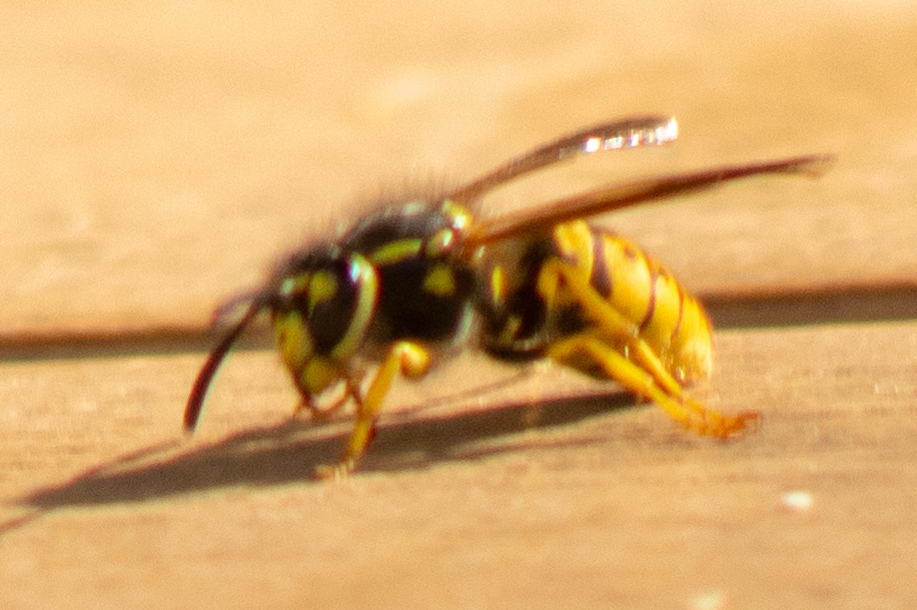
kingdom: Animalia
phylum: Arthropoda
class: Insecta
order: Hymenoptera
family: Vespidae
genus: Vespula
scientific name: Vespula germanica
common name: German wasp
